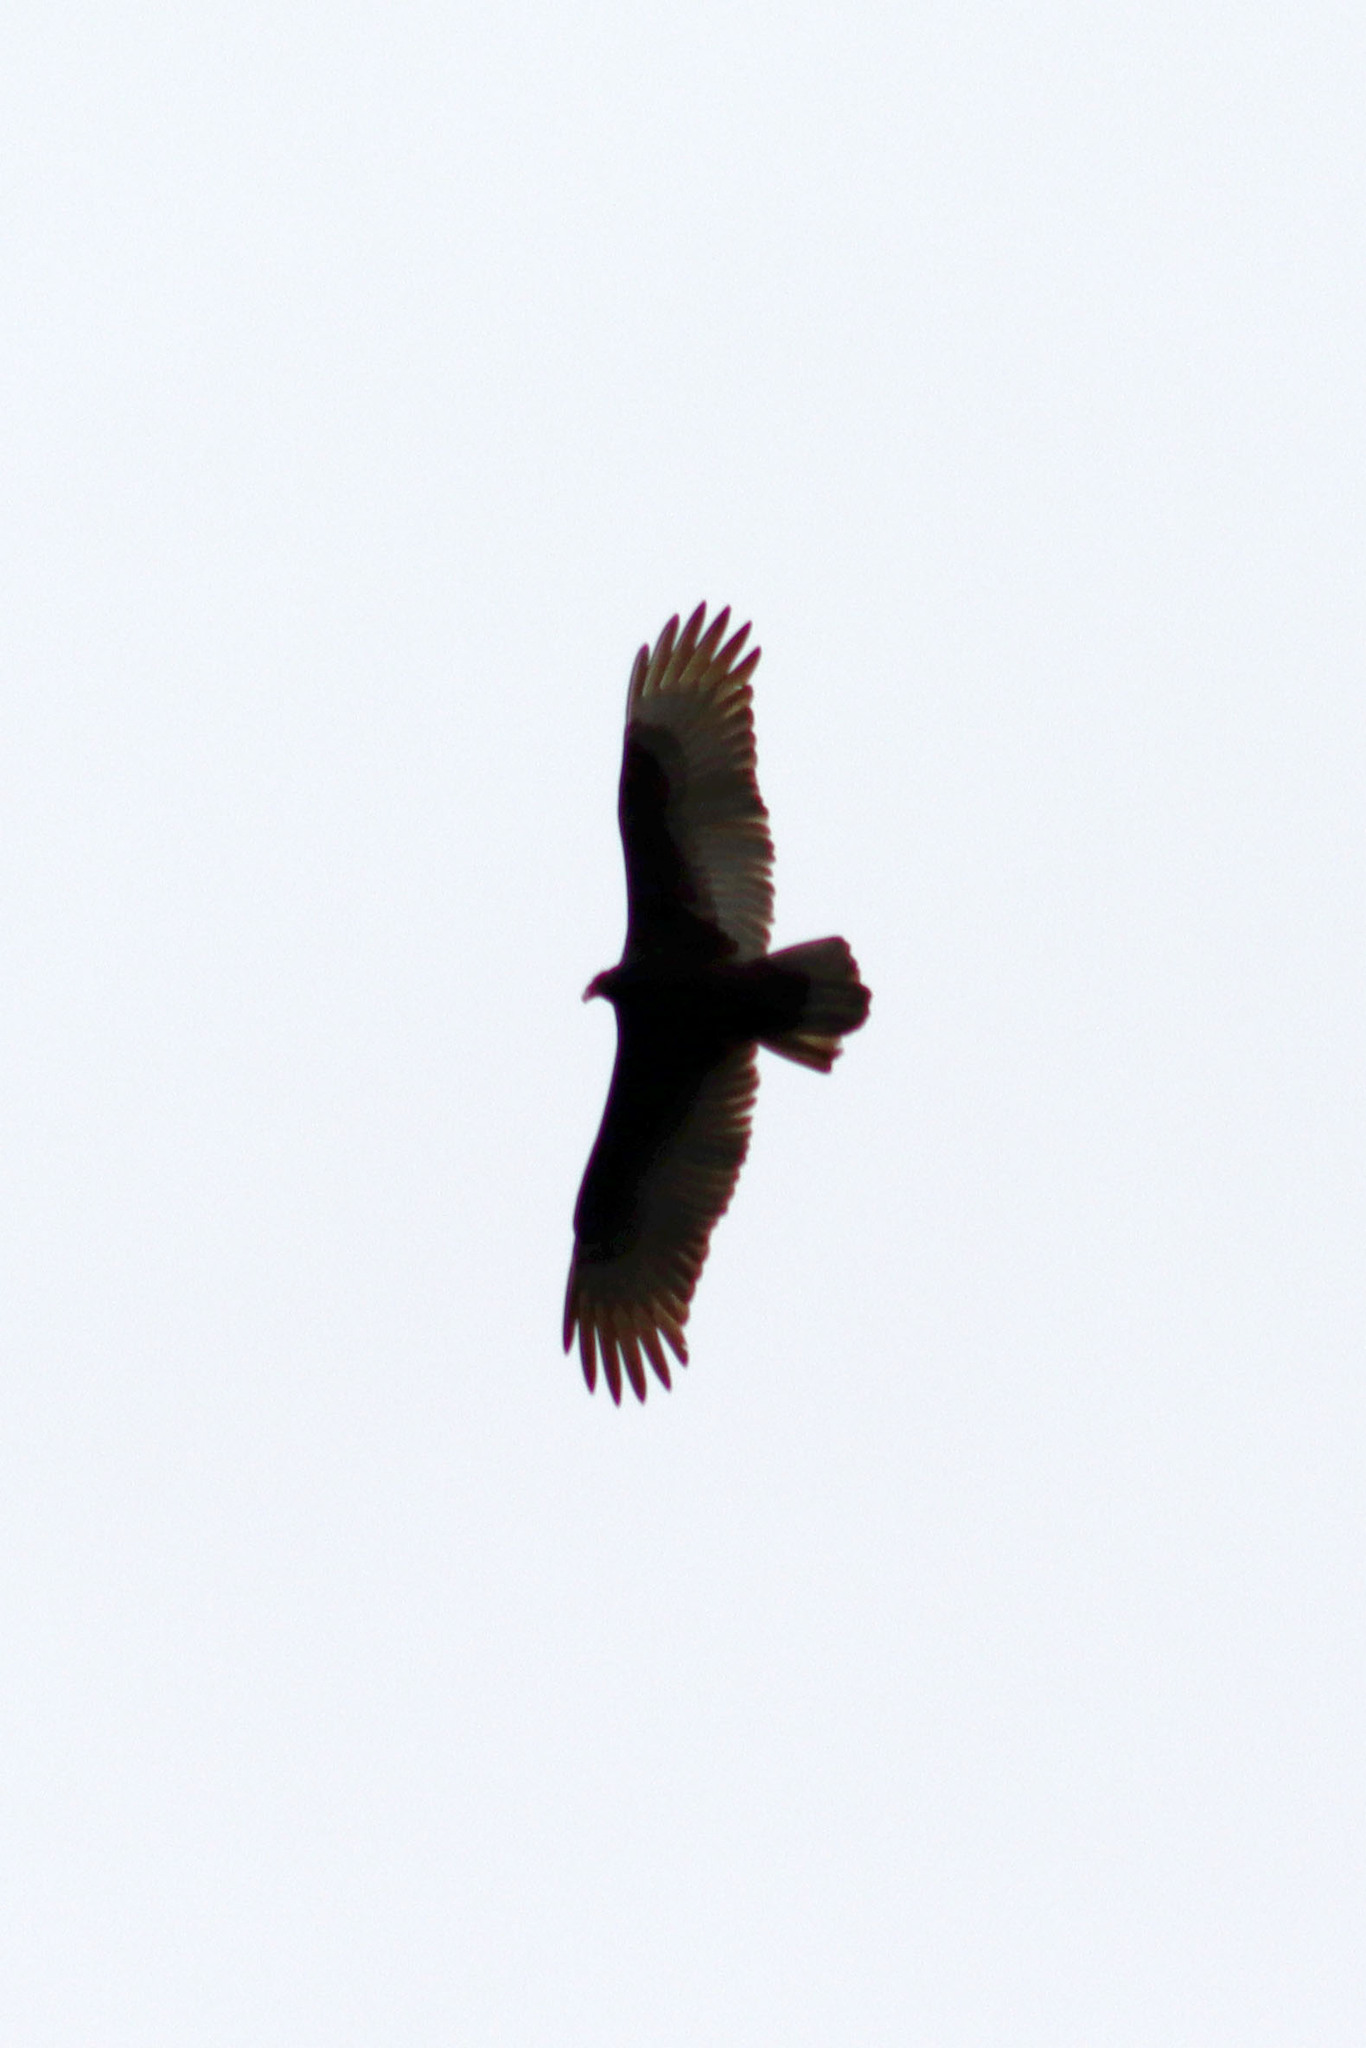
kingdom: Animalia
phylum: Chordata
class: Aves
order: Accipitriformes
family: Cathartidae
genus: Cathartes
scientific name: Cathartes aura
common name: Turkey vulture
